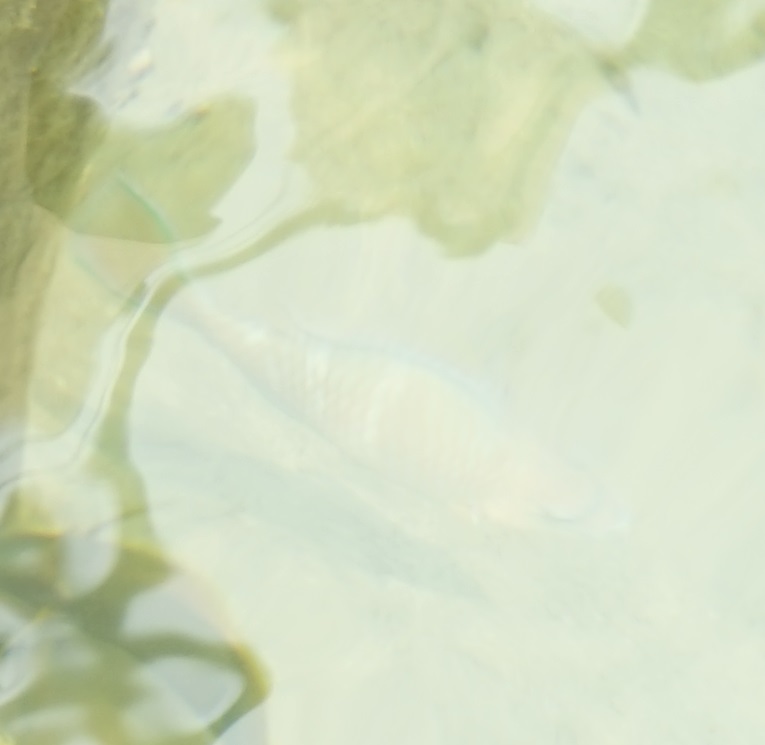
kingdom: Animalia
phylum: Chordata
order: Perciformes
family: Scaridae
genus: Scarus
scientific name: Scarus ghobban
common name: Blue-barred parrotfish
